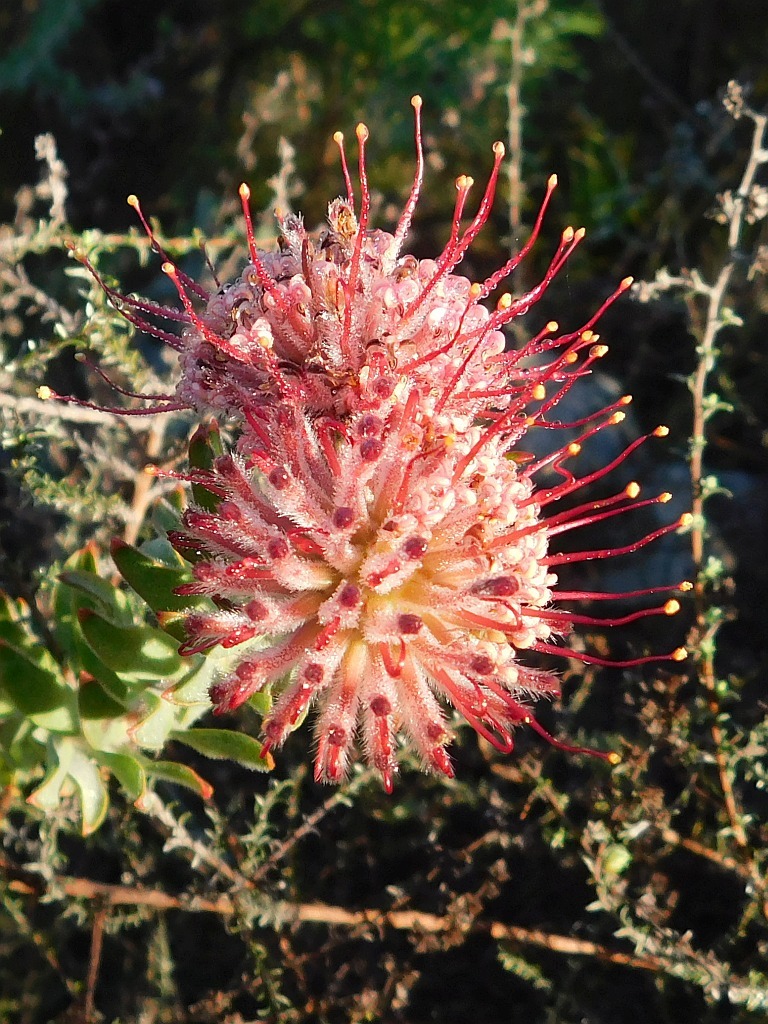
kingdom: Plantae
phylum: Tracheophyta
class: Magnoliopsida
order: Proteales
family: Proteaceae
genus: Leucospermum
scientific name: Leucospermum calligerum
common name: Arid pincushion
